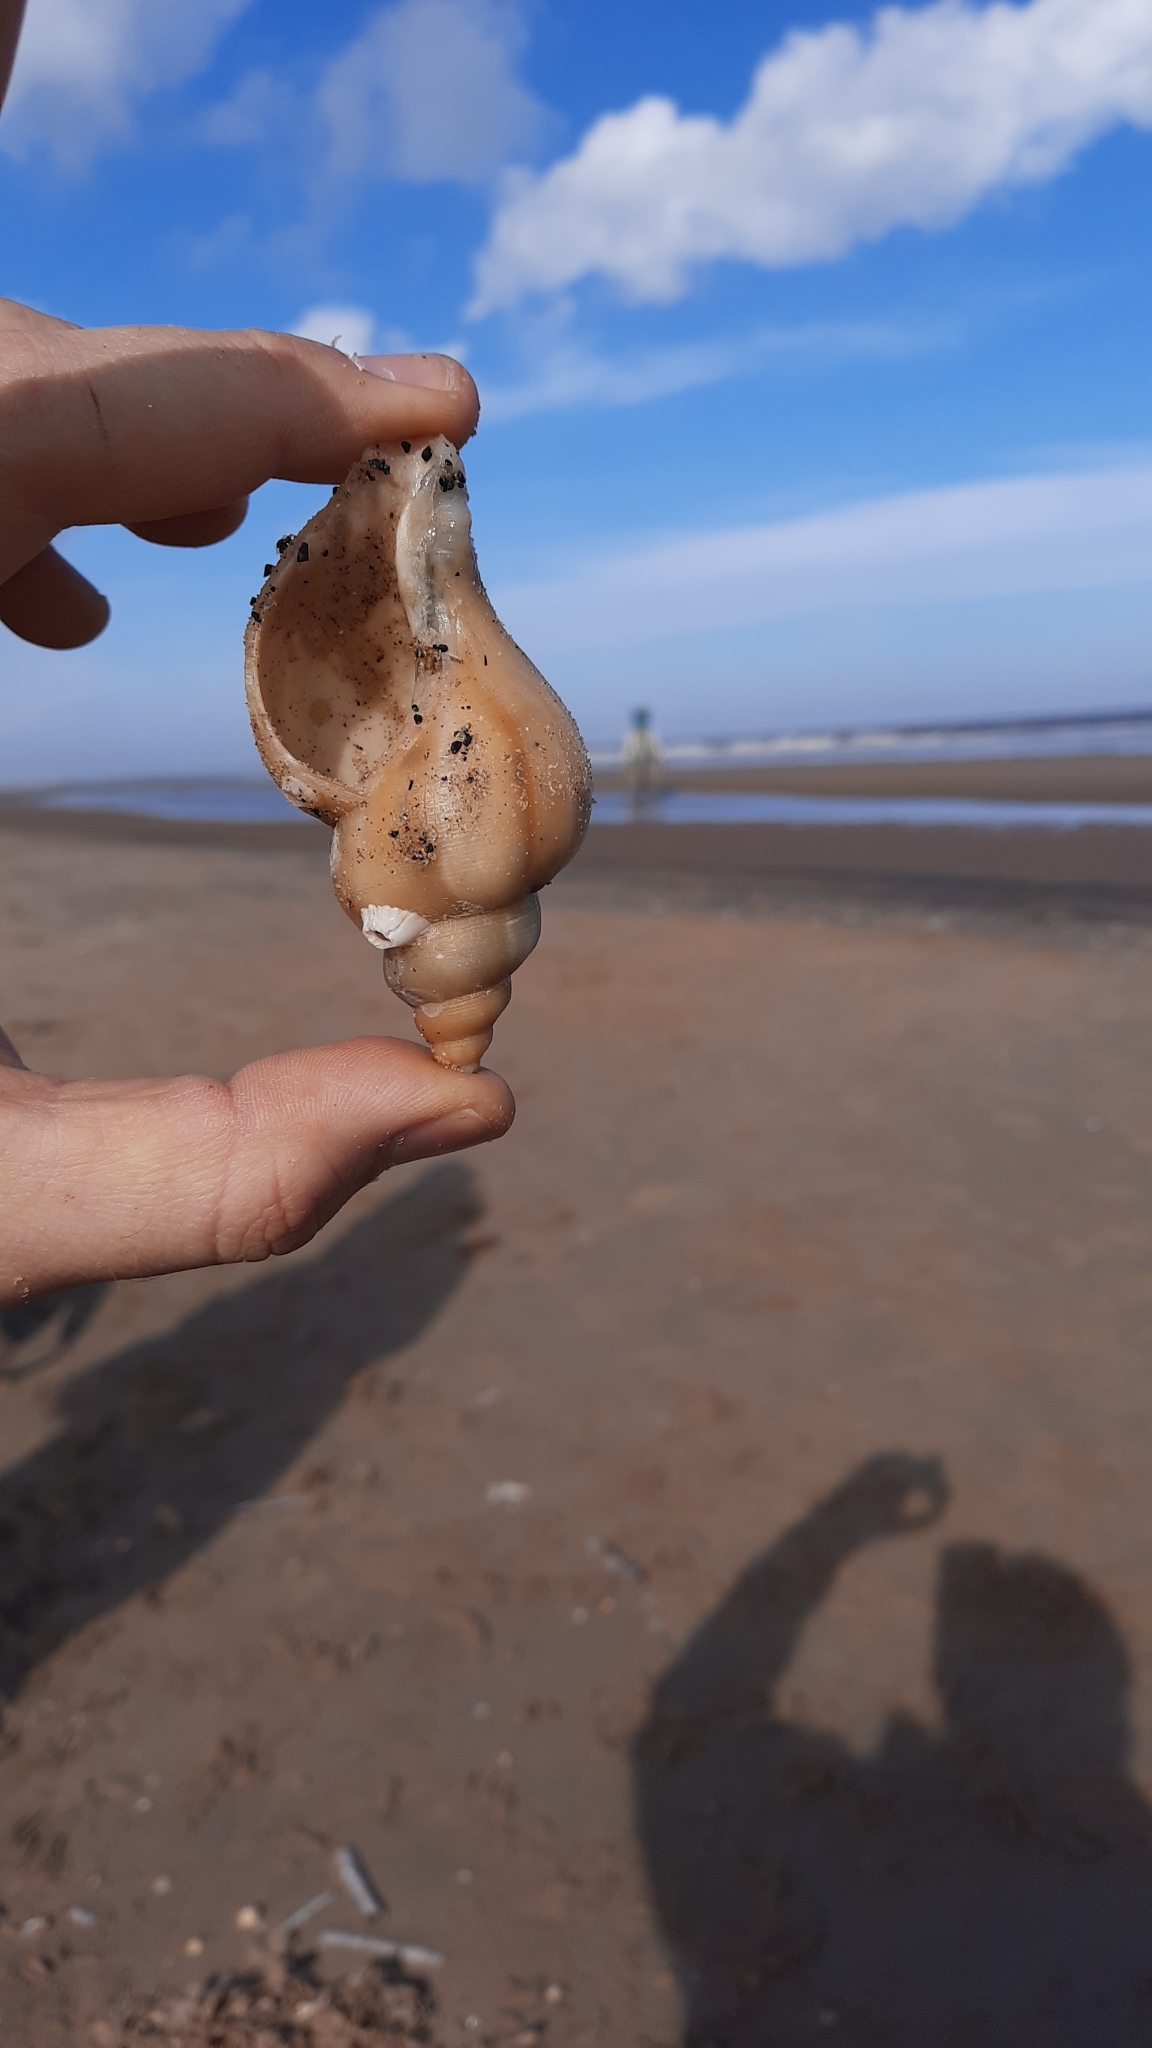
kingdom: Animalia
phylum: Mollusca
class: Gastropoda
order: Neogastropoda
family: Buccinidae
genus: Neptunea
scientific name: Neptunea antiqua
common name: Buckie
